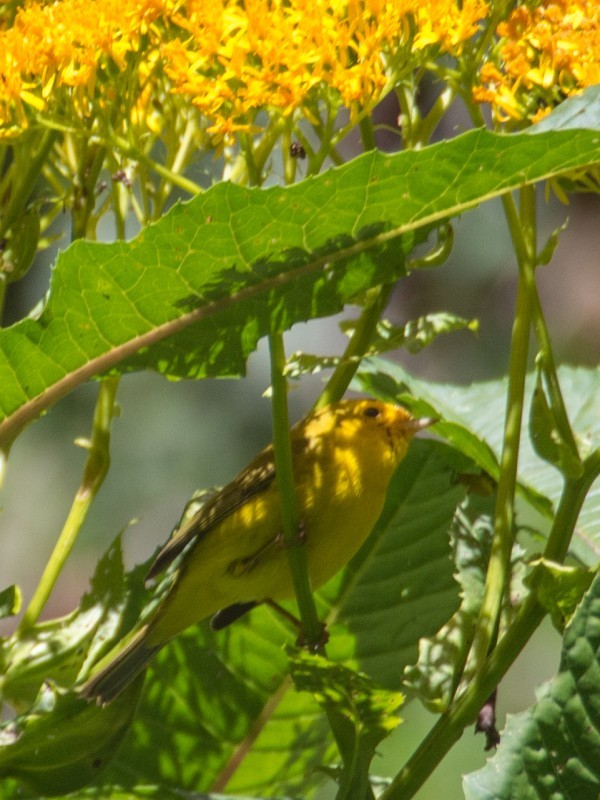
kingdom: Animalia
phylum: Chordata
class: Aves
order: Passeriformes
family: Parulidae
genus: Cardellina
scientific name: Cardellina pusilla
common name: Wilson's warbler
